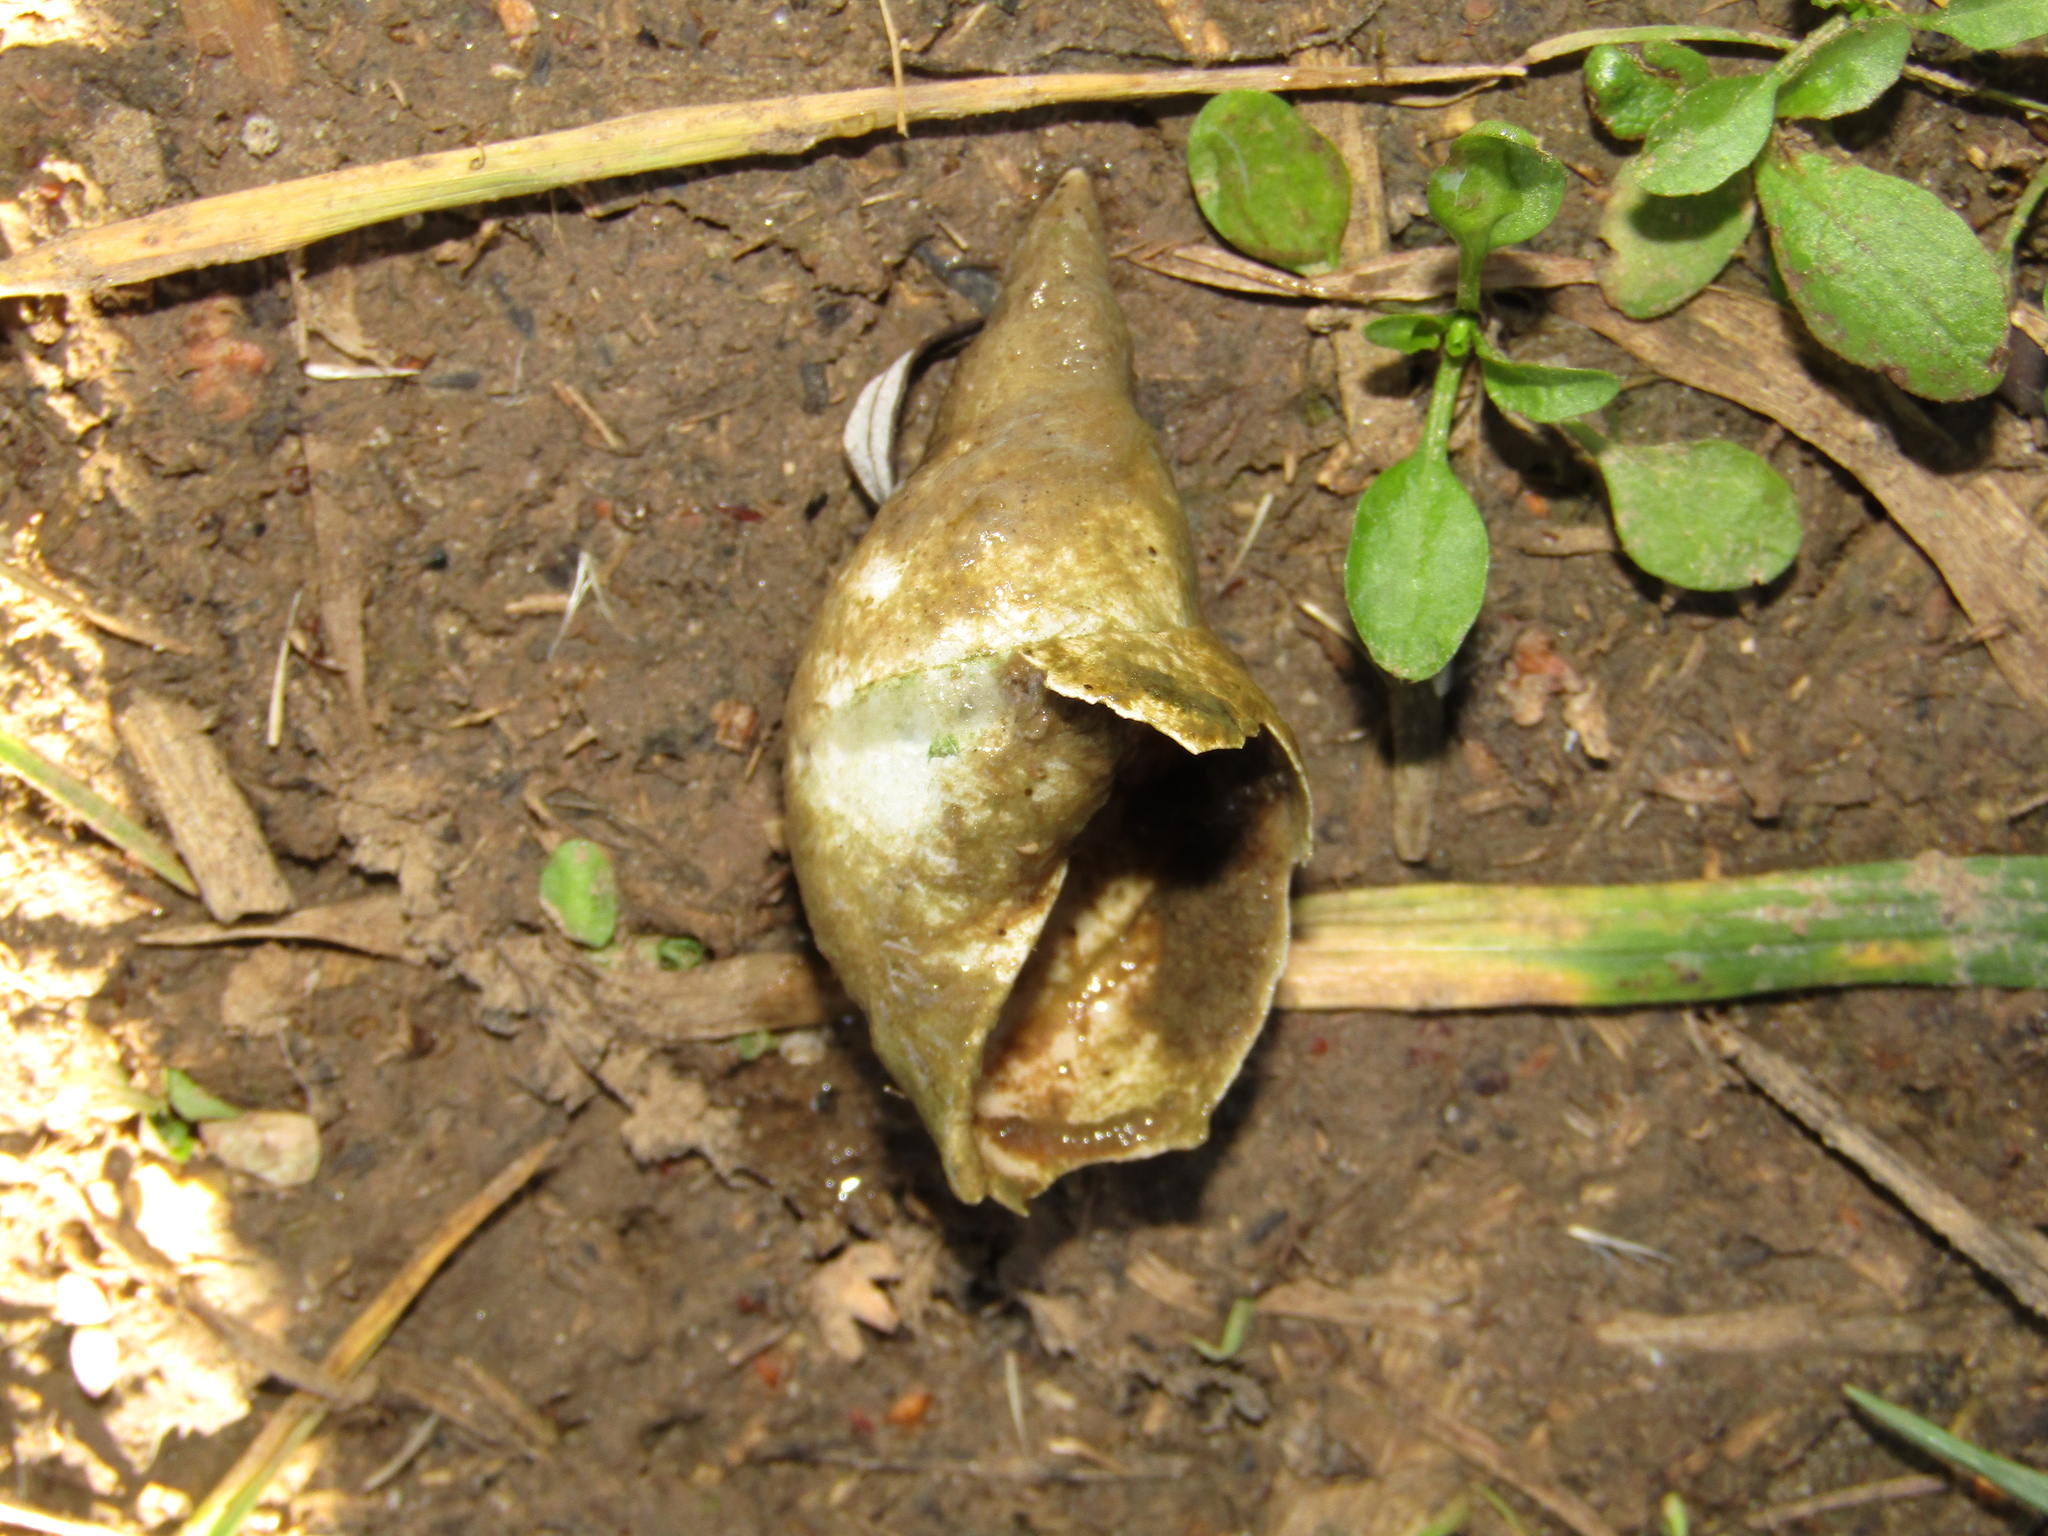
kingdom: Animalia
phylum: Mollusca
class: Gastropoda
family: Lymnaeidae
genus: Lymnaea
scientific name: Lymnaea stagnalis
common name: Great pond snail
